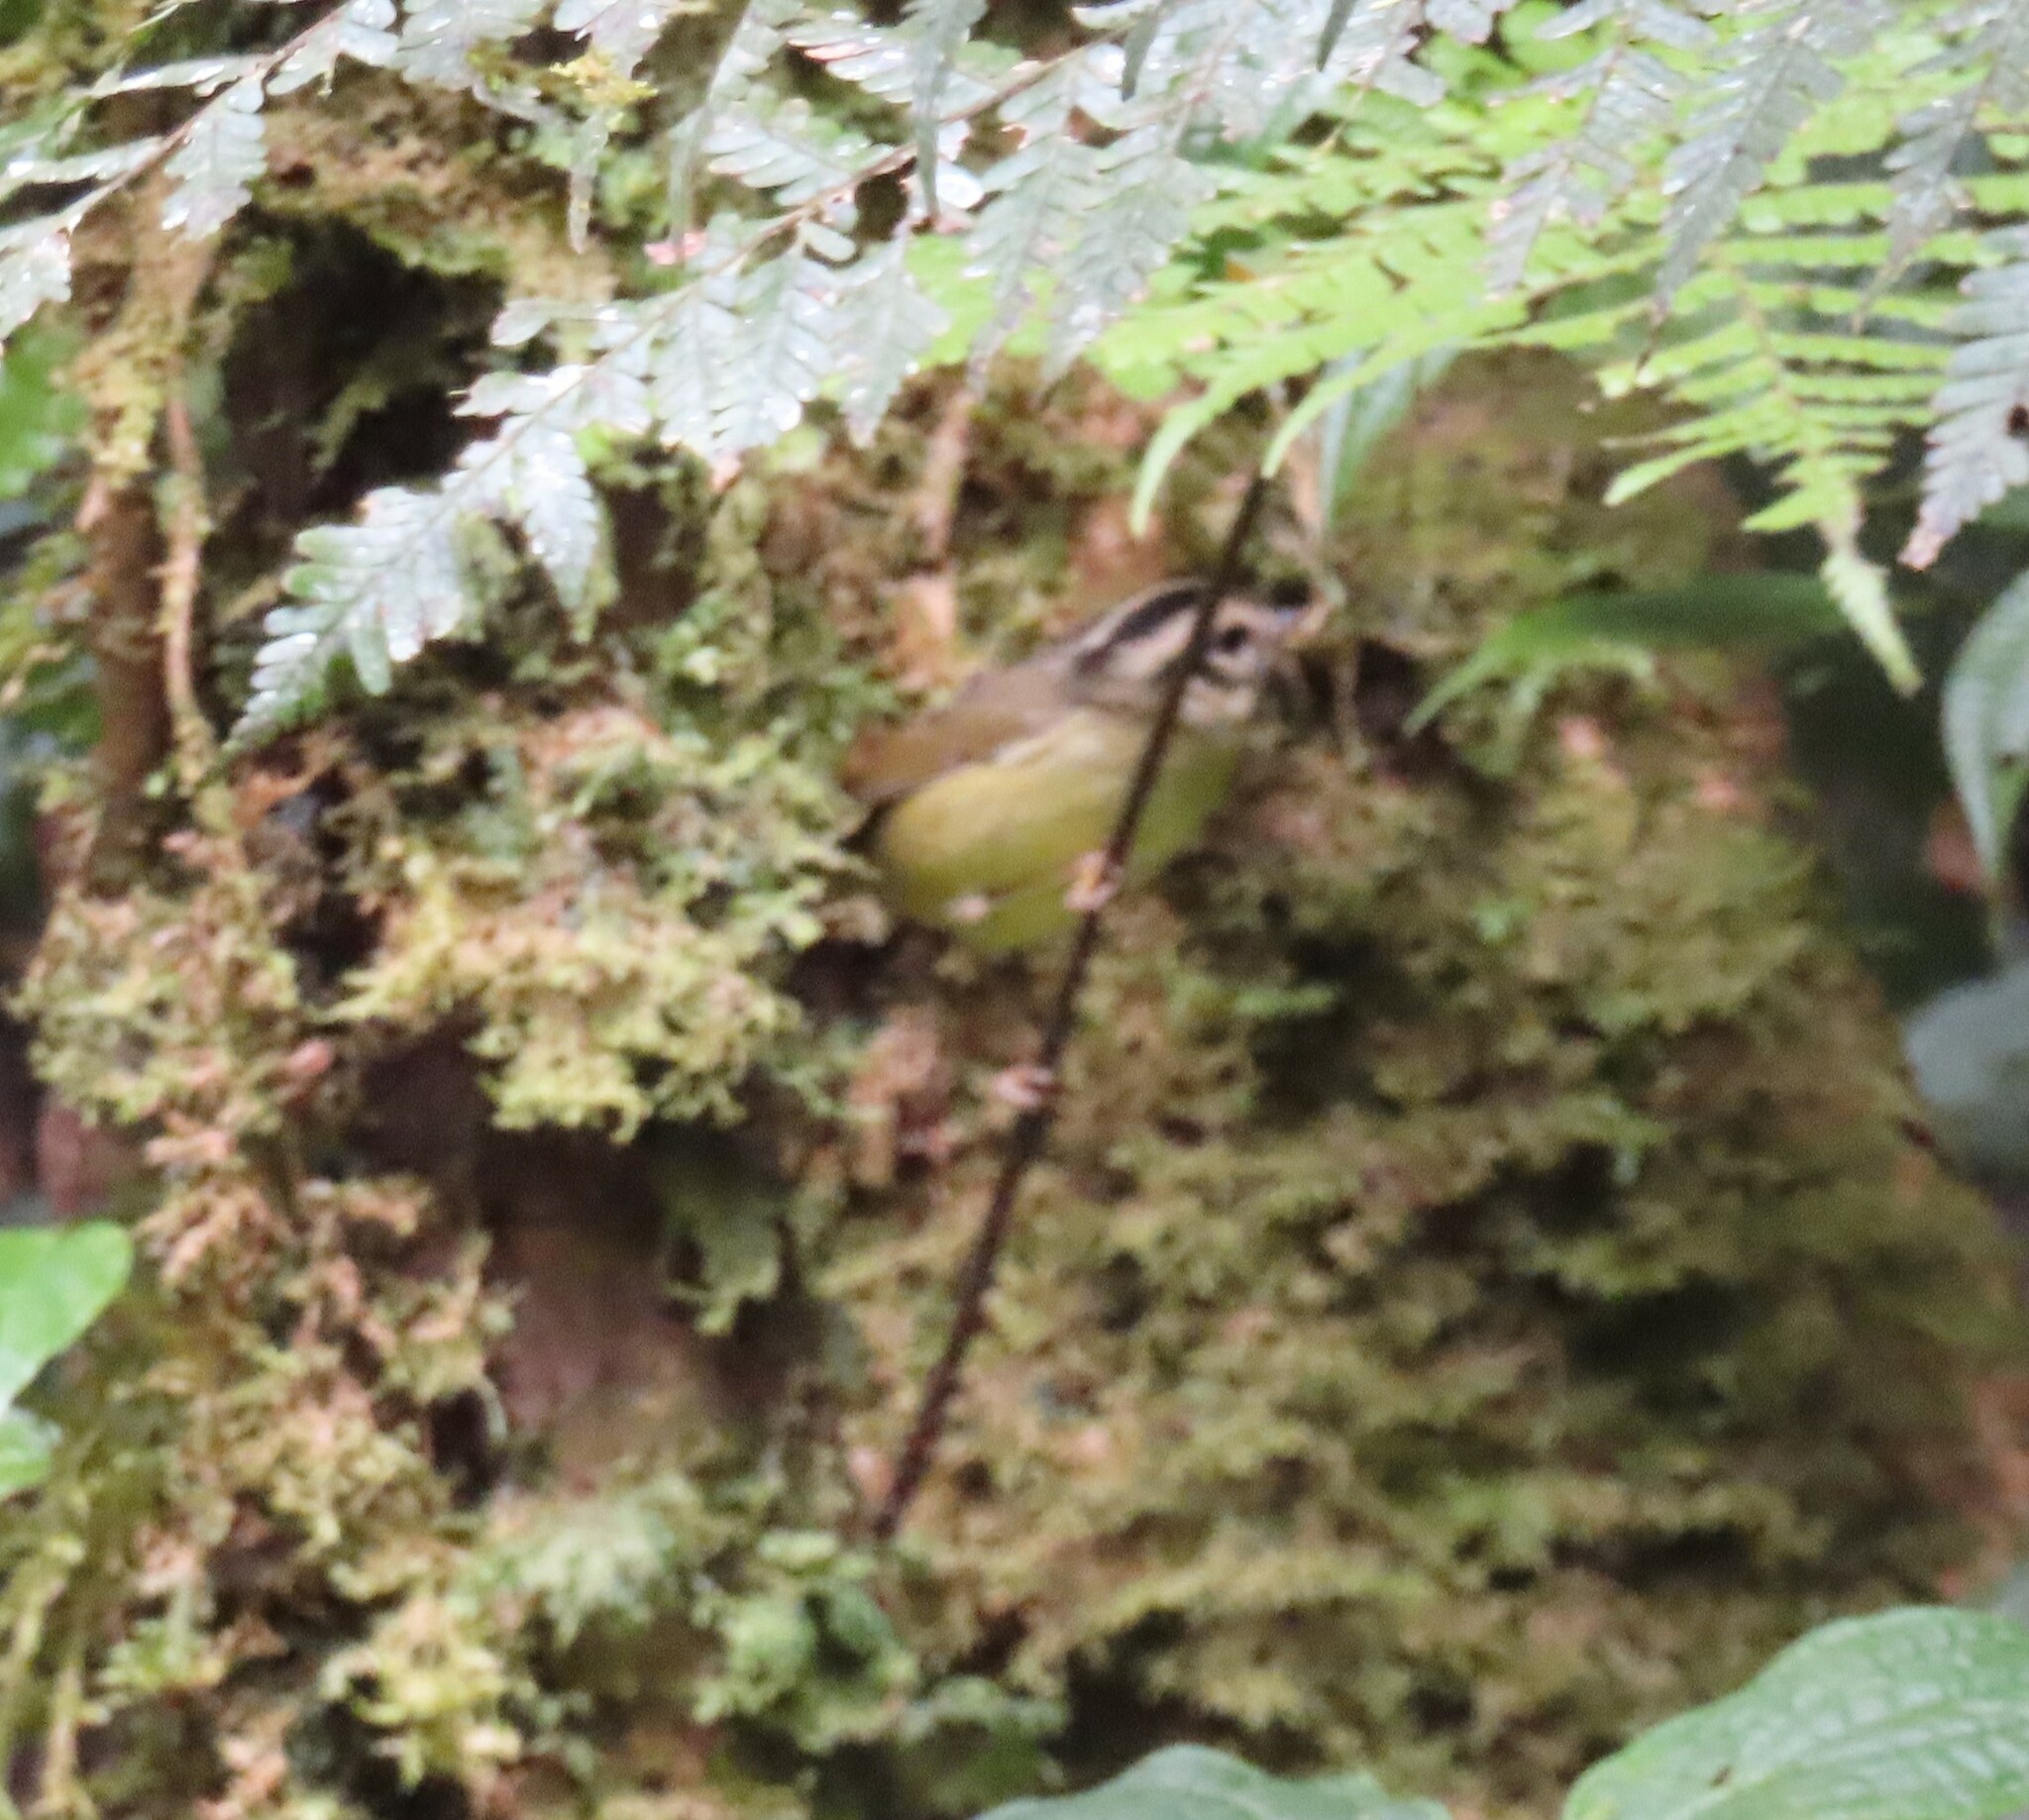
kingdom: Animalia
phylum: Chordata
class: Aves
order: Passeriformes
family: Parulidae
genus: Basileuterus
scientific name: Basileuterus melanotis
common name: Black-eared warbler
